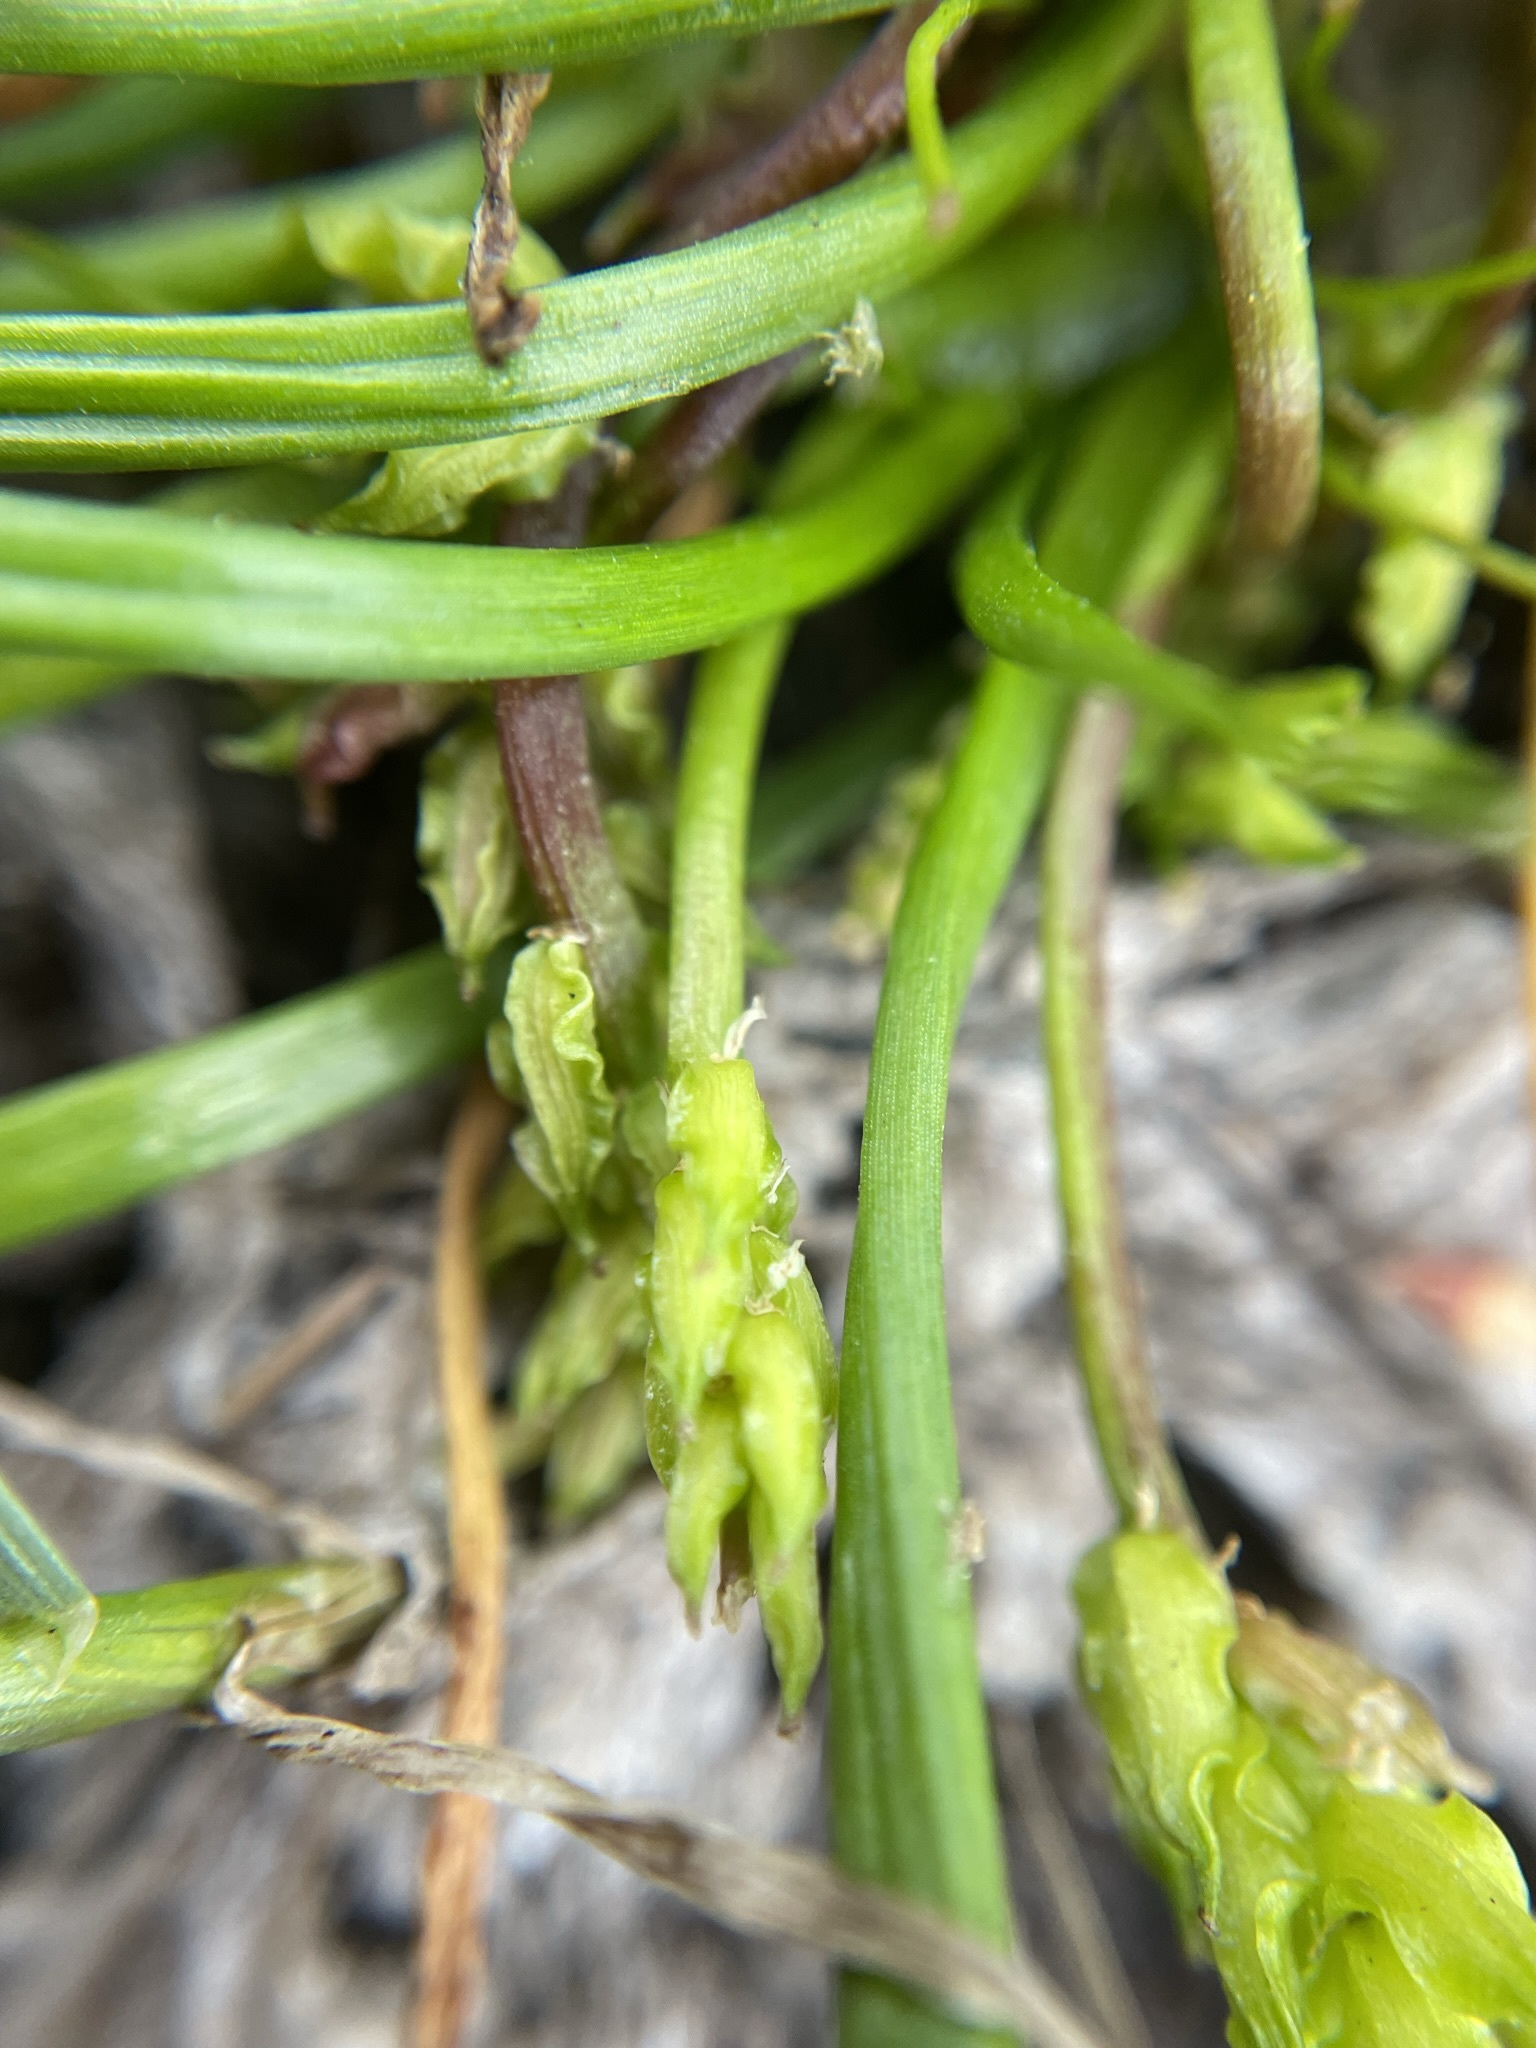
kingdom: Plantae
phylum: Tracheophyta
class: Liliopsida
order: Alismatales
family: Juncaginaceae
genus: Triglochin
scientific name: Triglochin scilloides
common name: Awl-leaved lilaea
